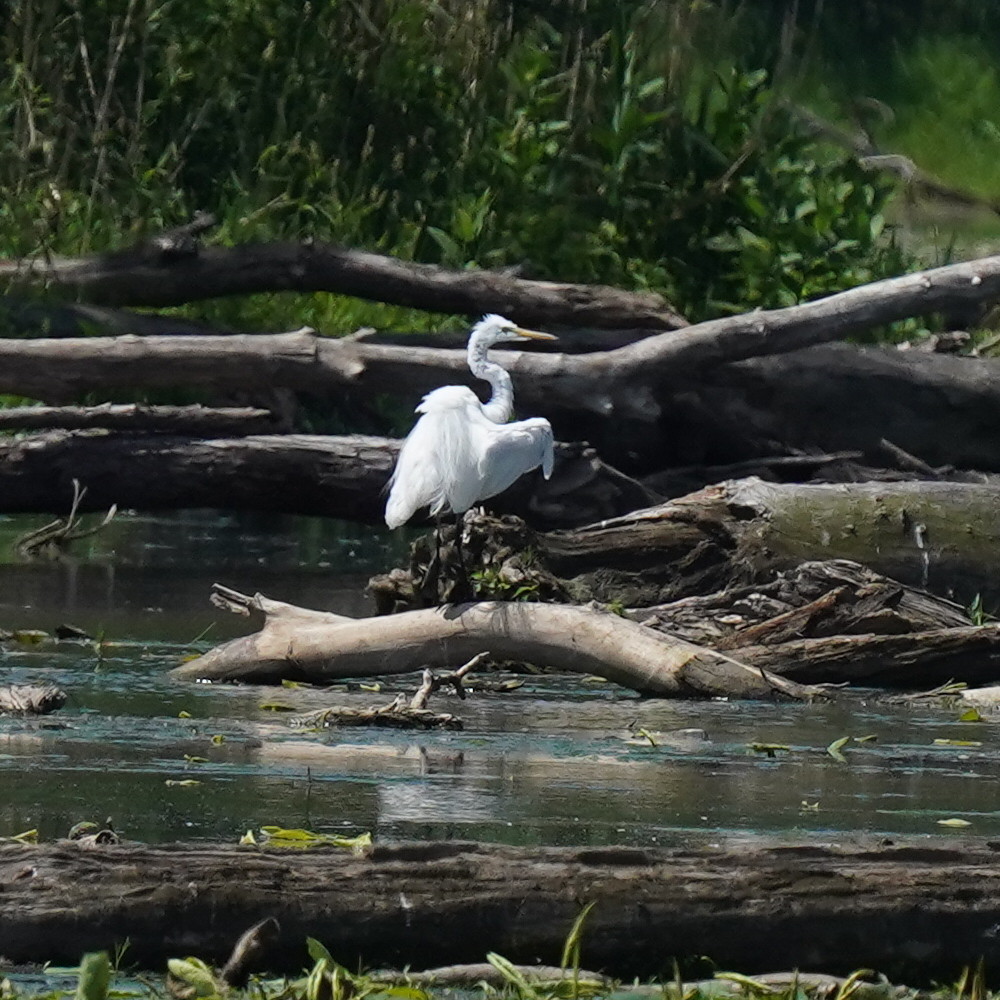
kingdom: Animalia
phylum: Chordata
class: Aves
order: Pelecaniformes
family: Ardeidae
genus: Ardea
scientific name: Ardea alba
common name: Great egret
